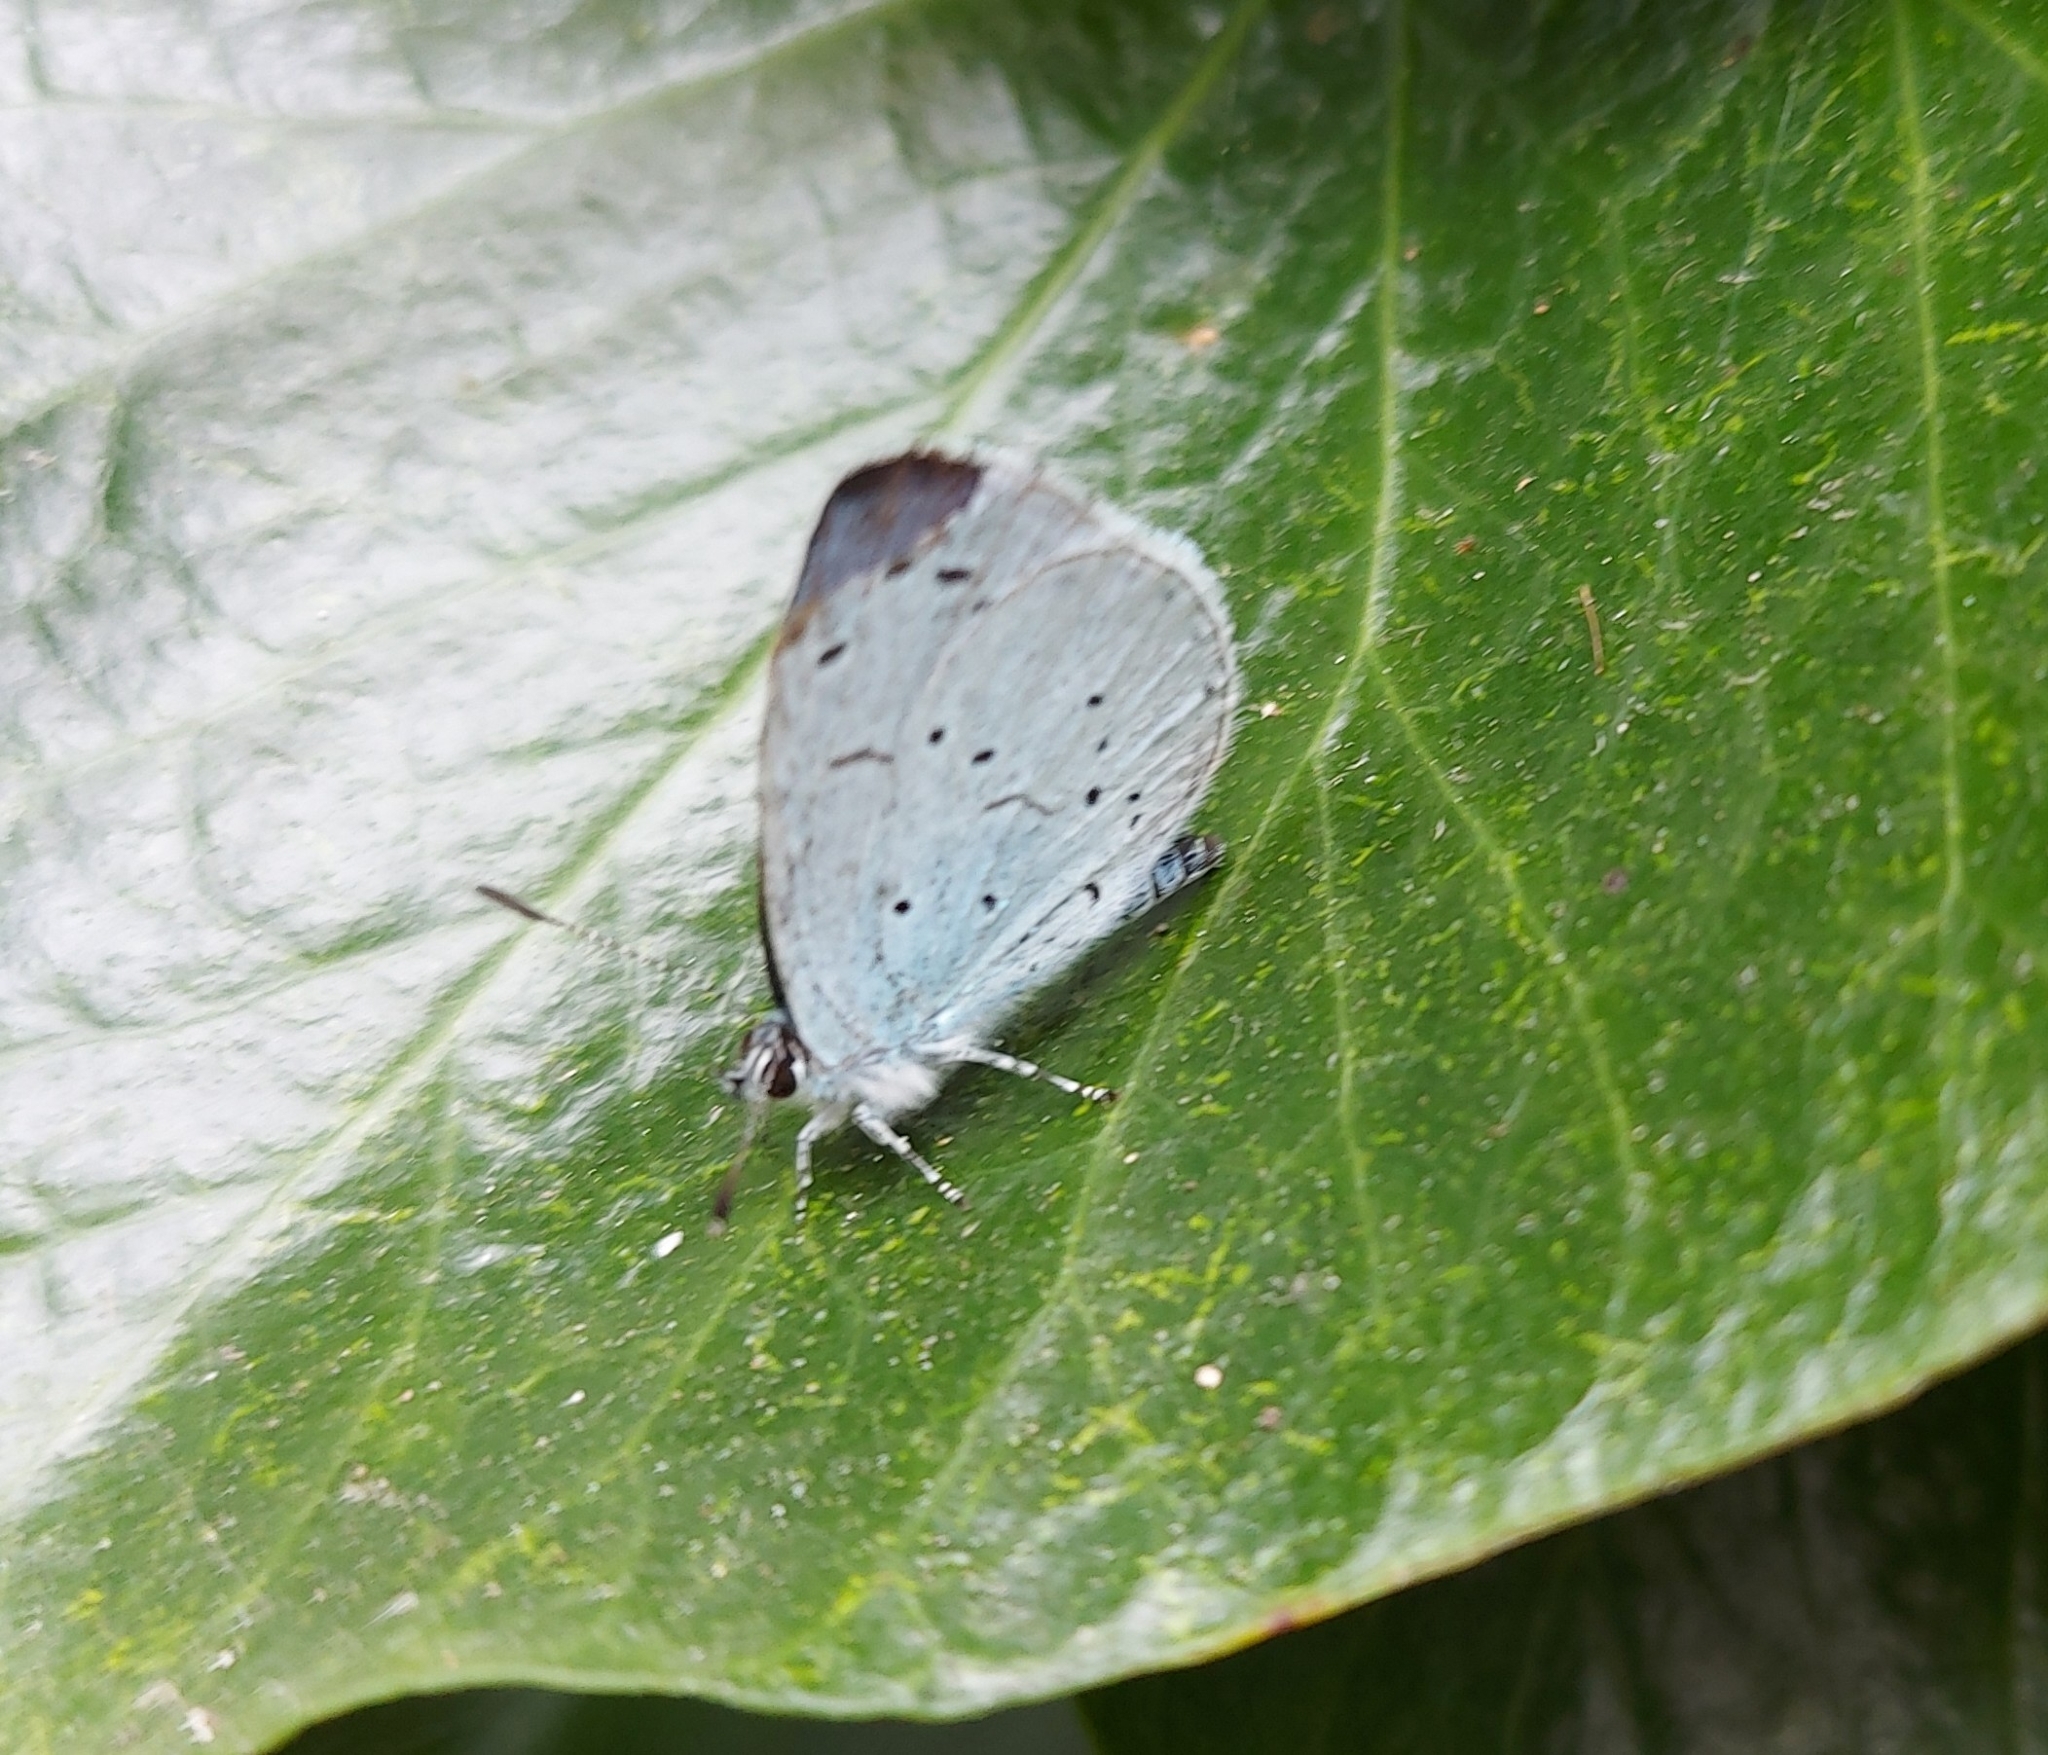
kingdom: Animalia
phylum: Arthropoda
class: Insecta
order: Lepidoptera
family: Lycaenidae
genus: Celastrina
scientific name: Celastrina argiolus
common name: Holly blue
